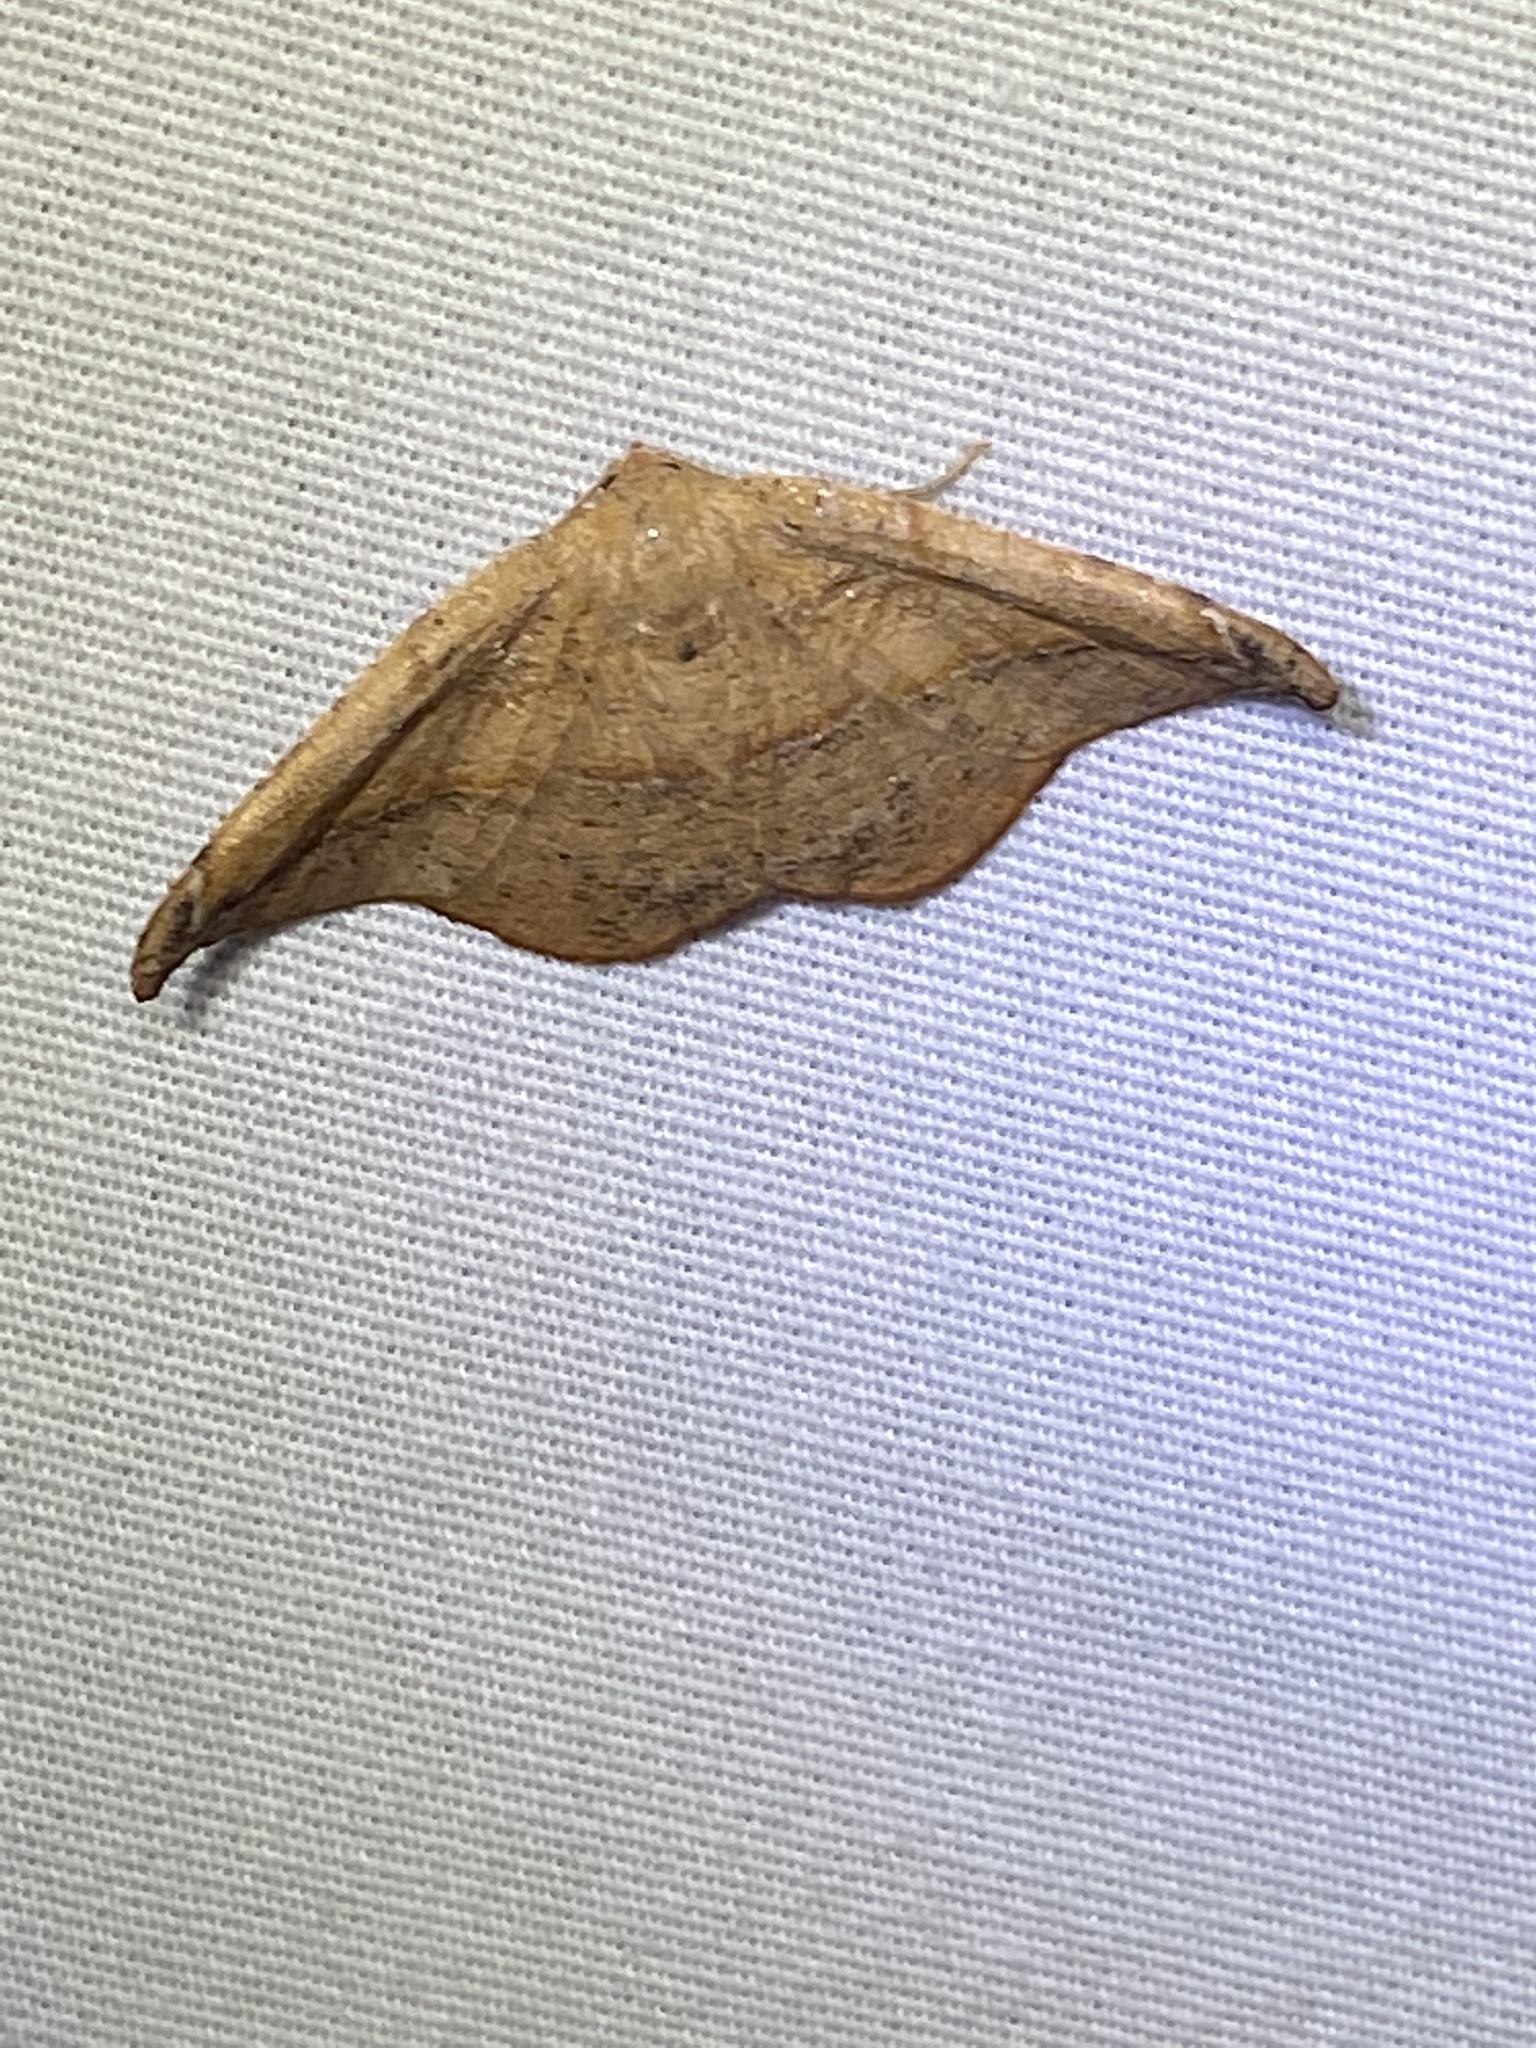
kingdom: Animalia
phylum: Arthropoda
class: Insecta
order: Lepidoptera
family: Geometridae
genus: Patalene
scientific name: Patalene olyzonaria
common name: Juniper geometer moth
